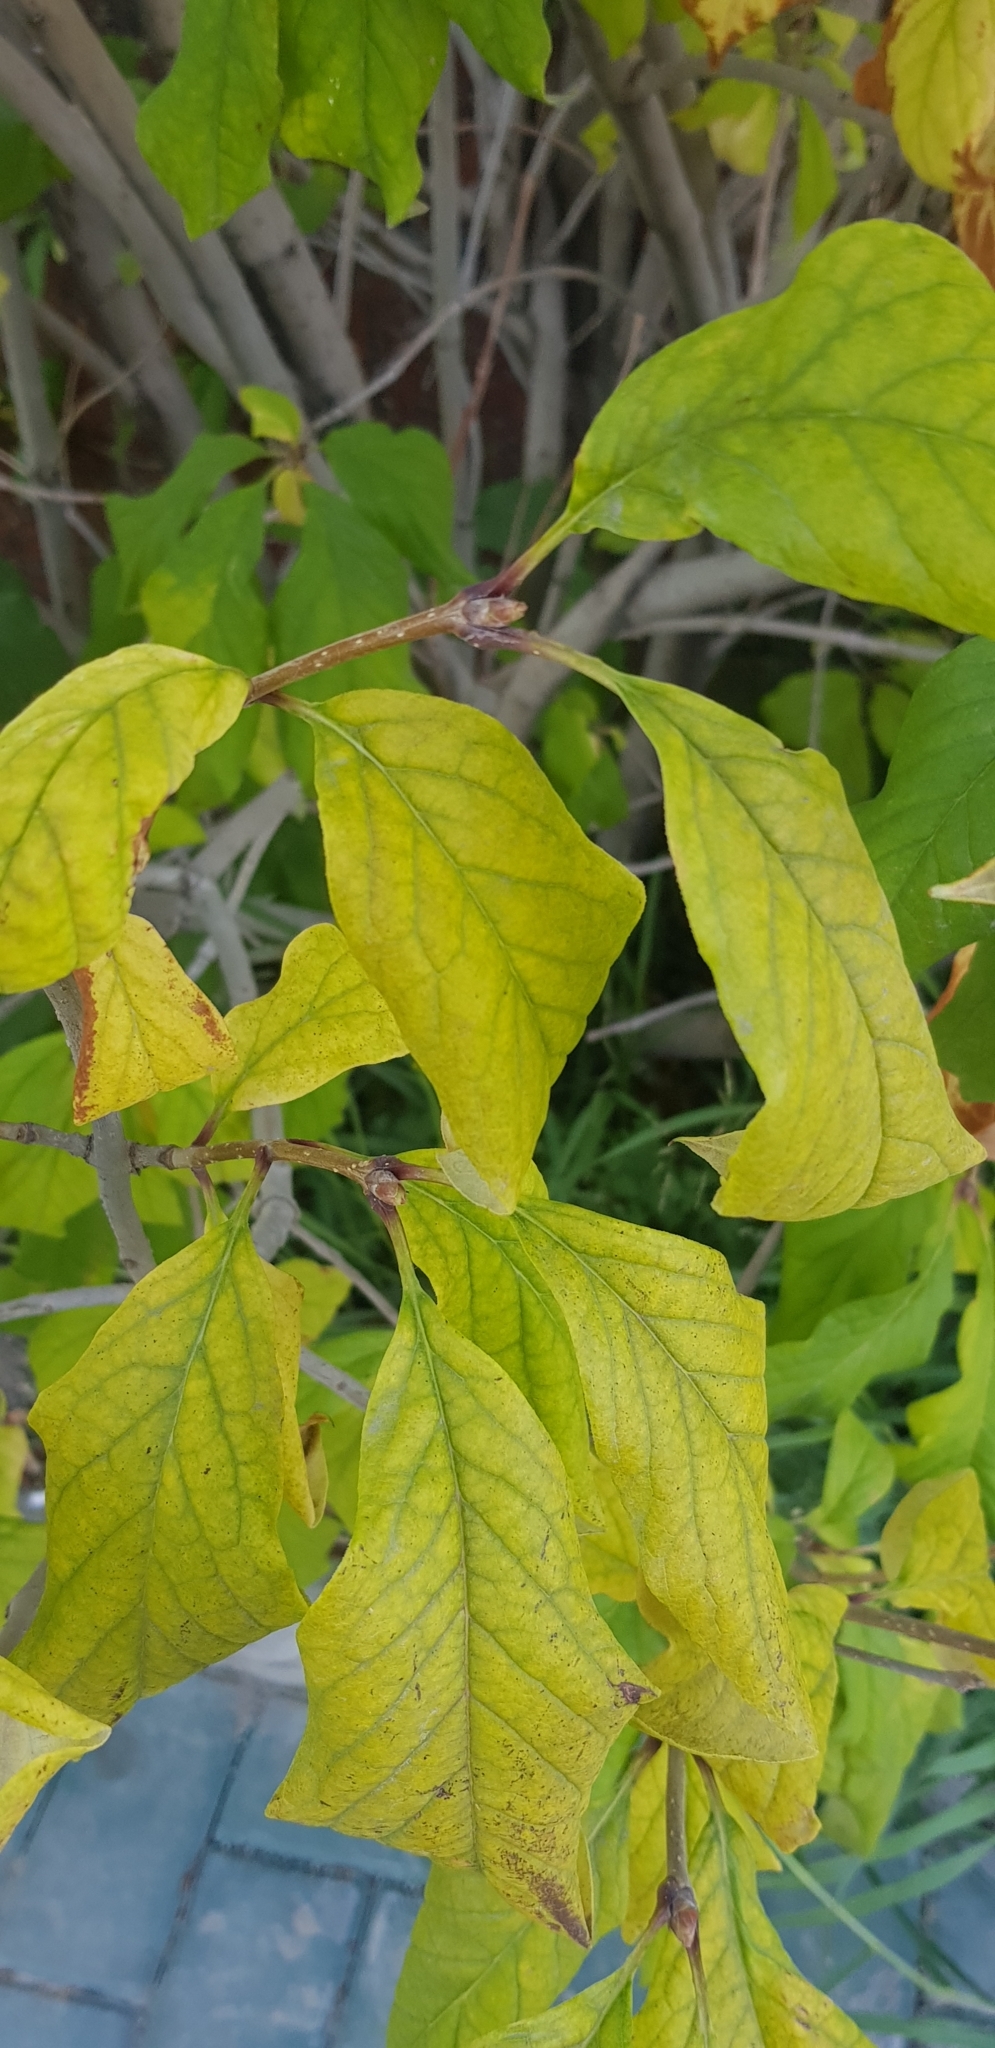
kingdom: Plantae
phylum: Tracheophyta
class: Magnoliopsida
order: Rosales
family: Rosaceae
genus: Prunus
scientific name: Prunus padus
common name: Bird cherry
